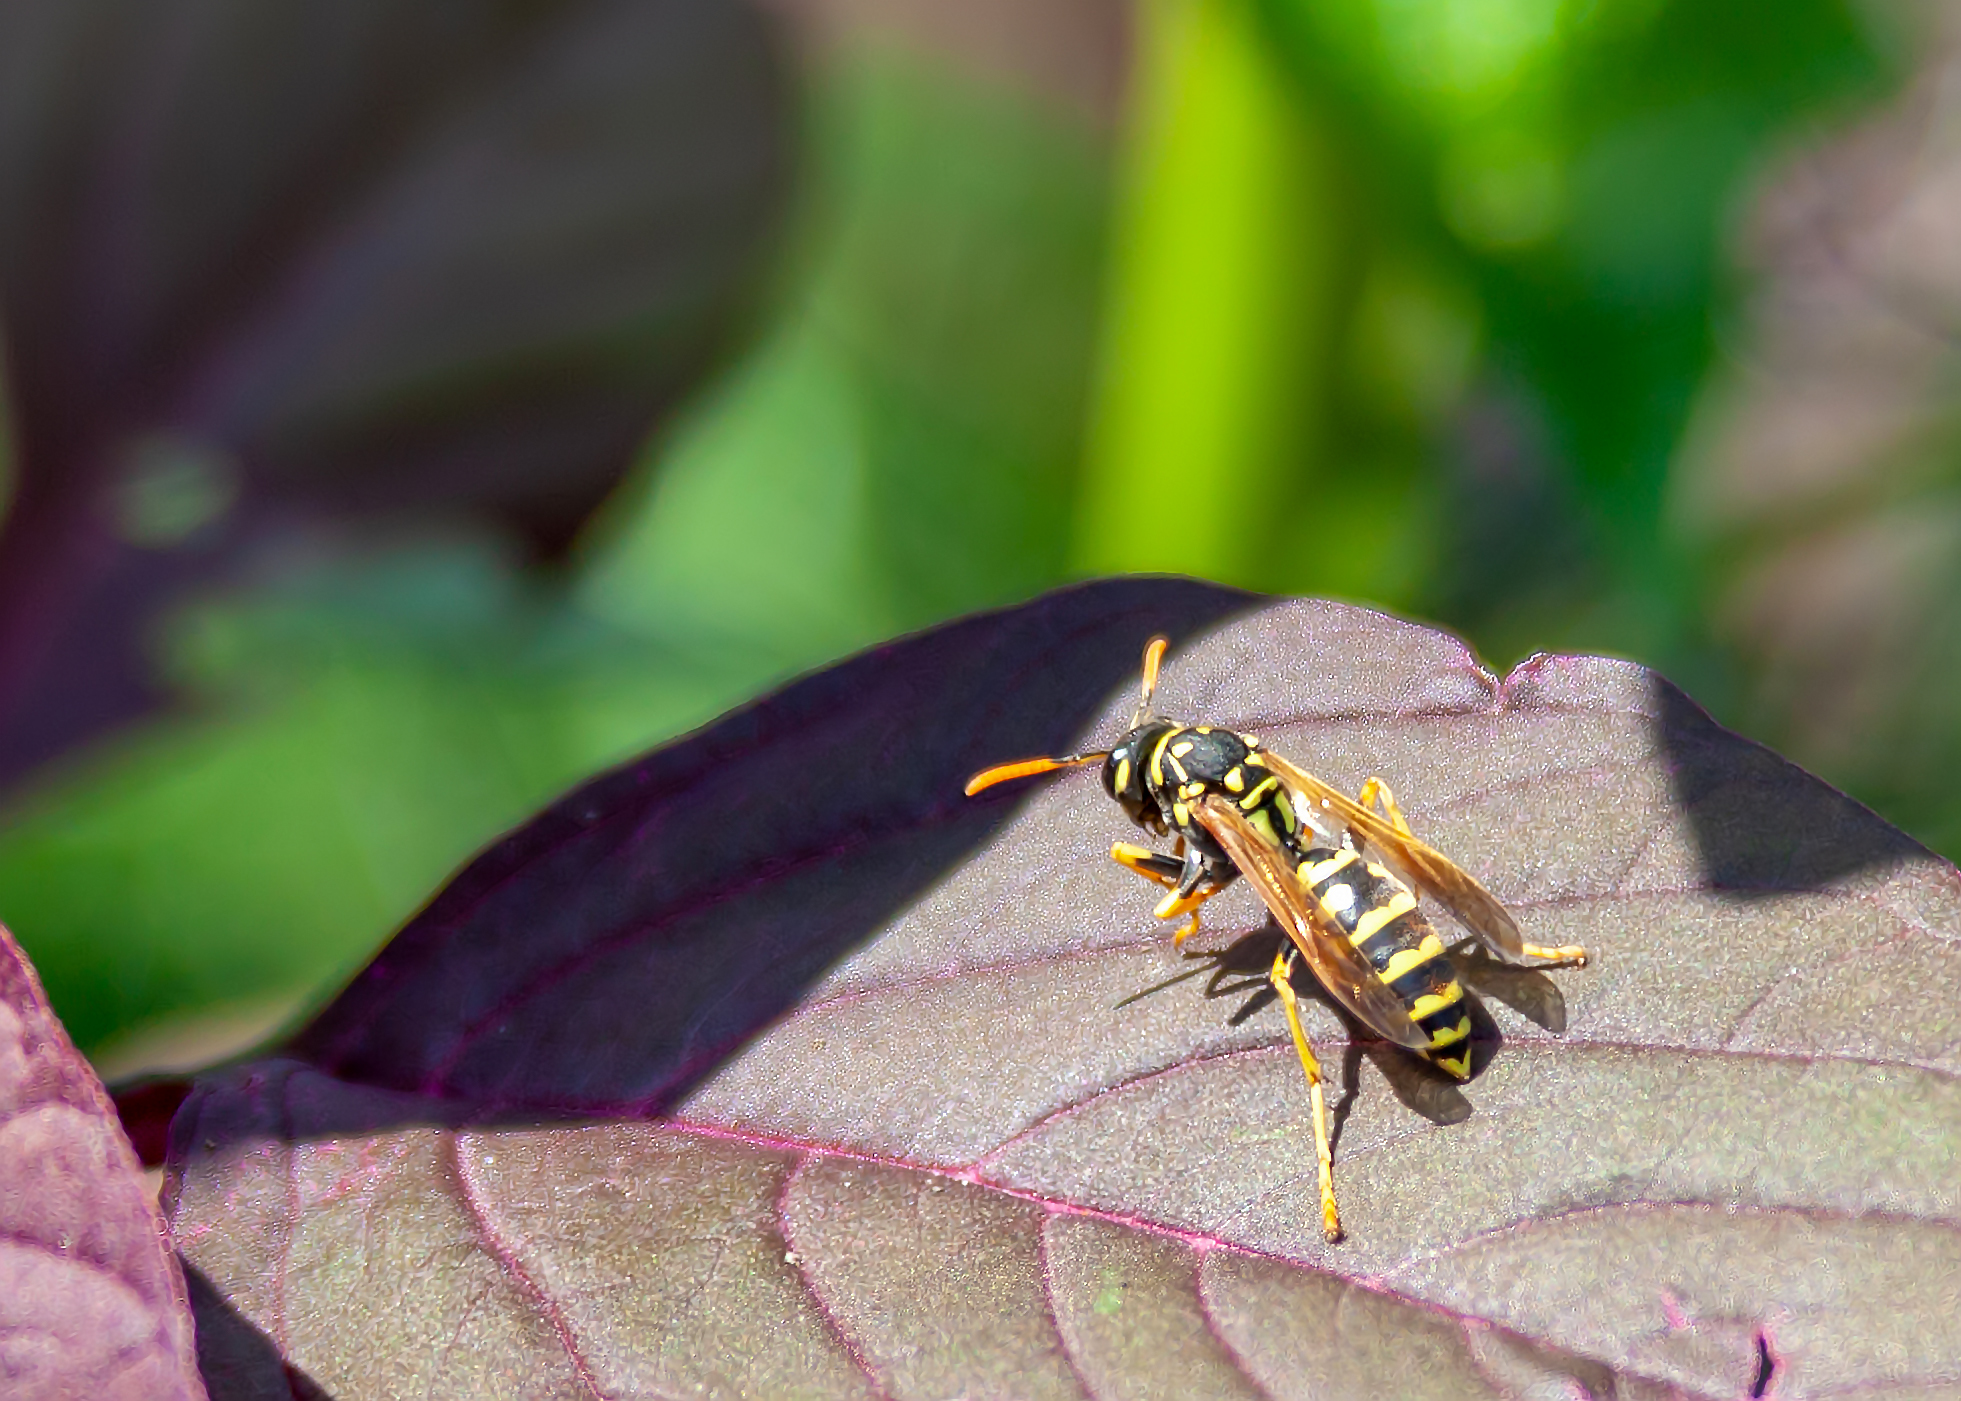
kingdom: Animalia
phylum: Arthropoda
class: Insecta
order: Hymenoptera
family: Eumenidae
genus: Polistes
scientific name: Polistes dominula
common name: Paper wasp
